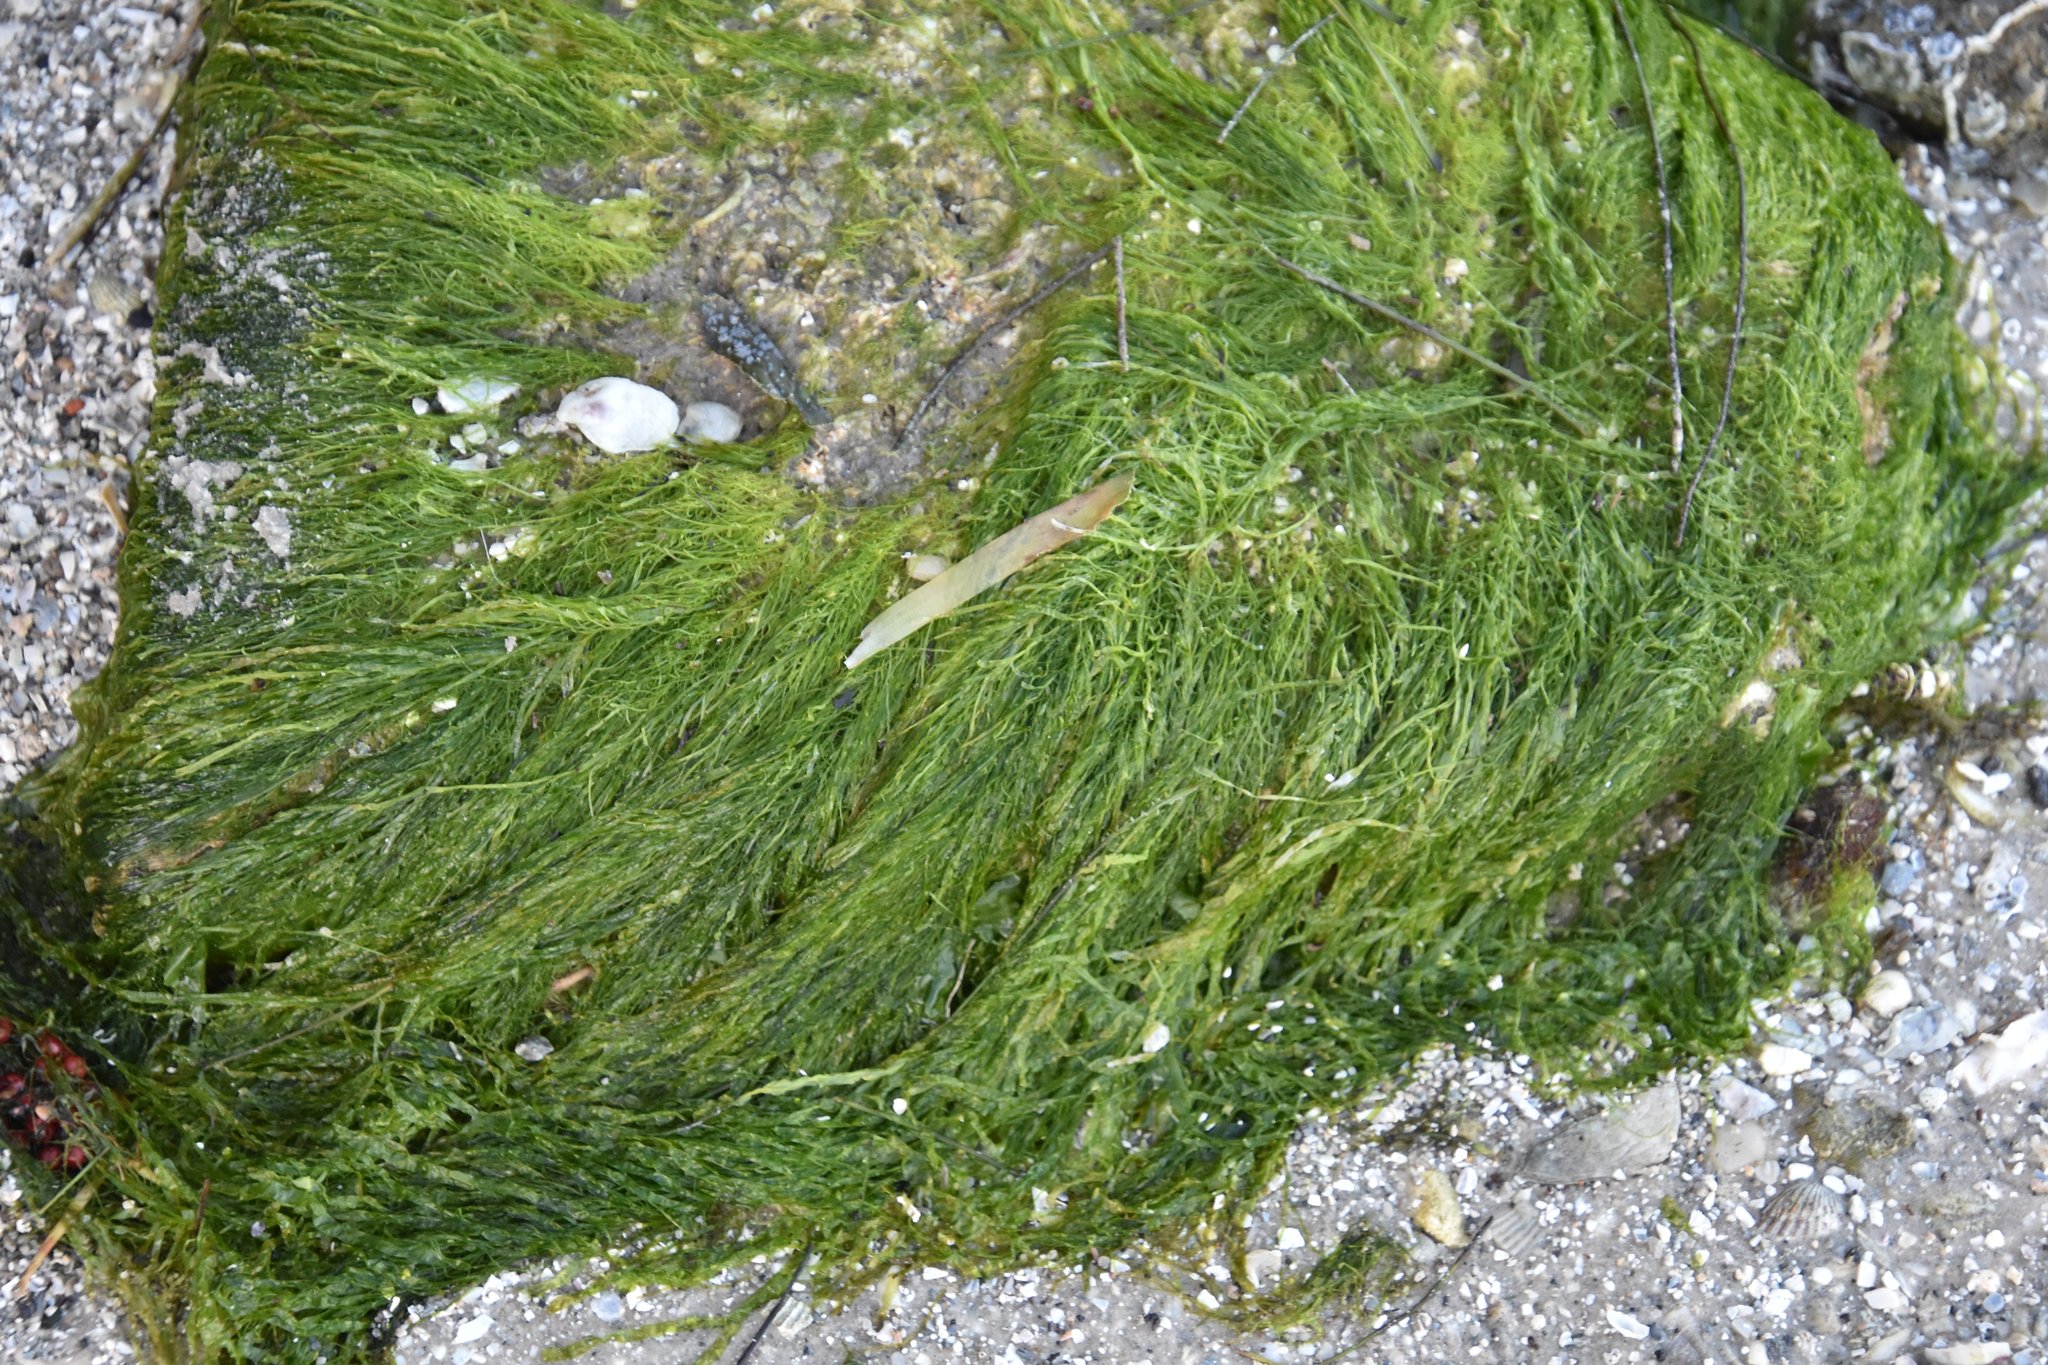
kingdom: Plantae
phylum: Chlorophyta
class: Ulvophyceae
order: Ulvales
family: Ulvaceae
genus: Ulva
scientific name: Ulva intestinalis
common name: Gut weed
